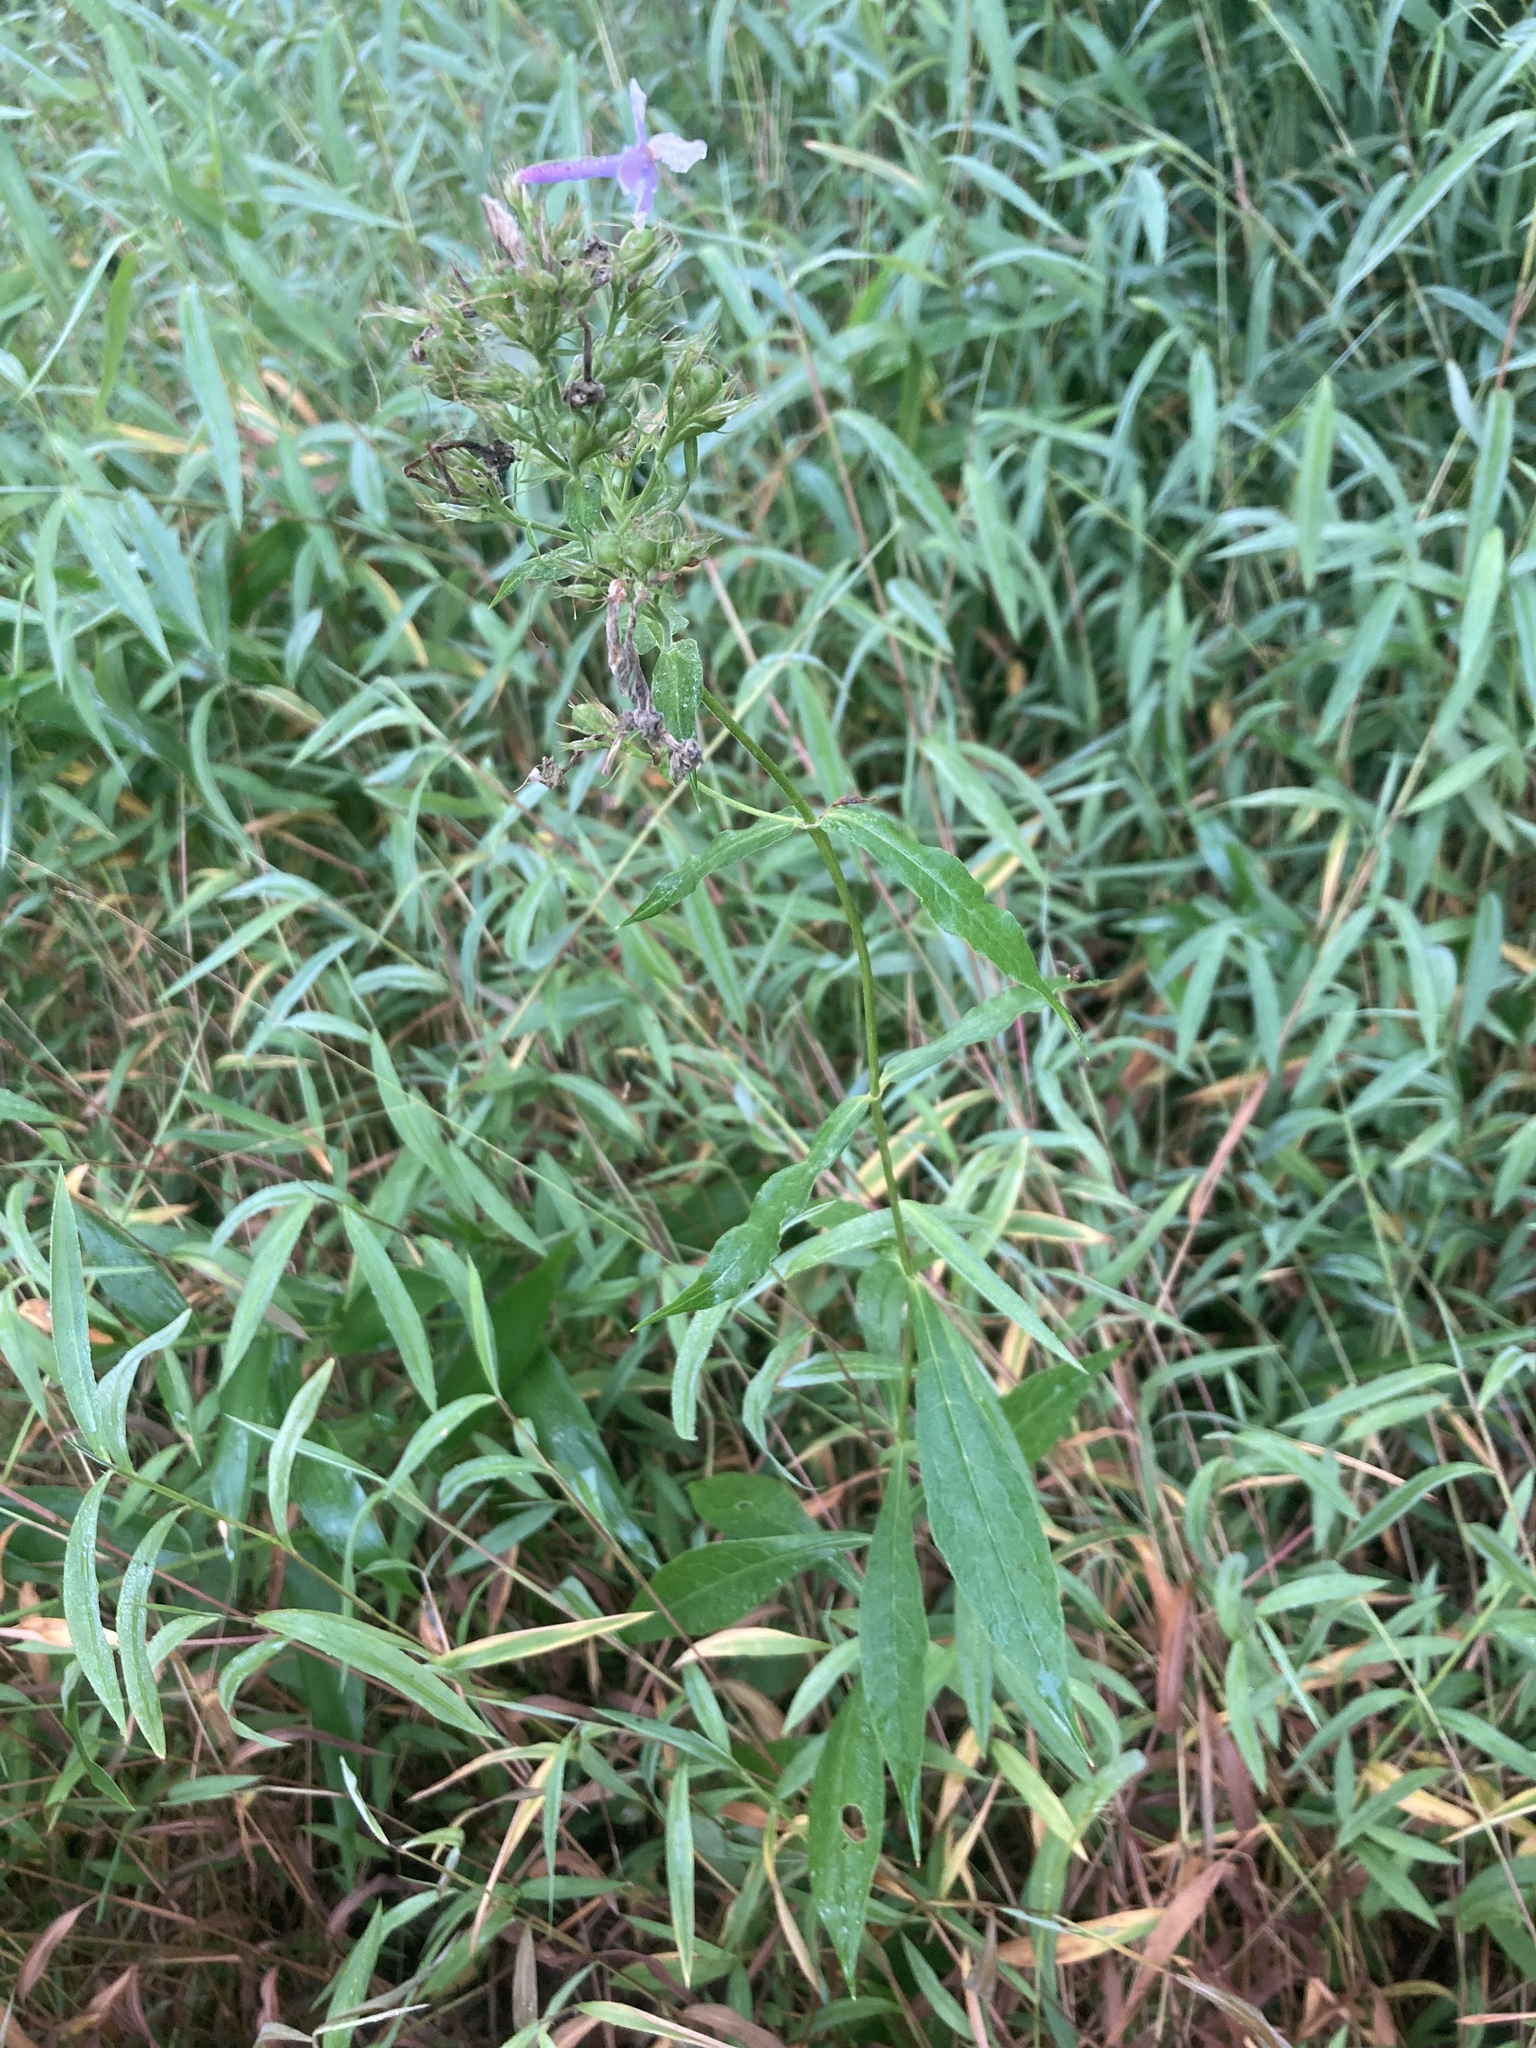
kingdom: Plantae
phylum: Tracheophyta
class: Magnoliopsida
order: Ericales
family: Polemoniaceae
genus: Phlox
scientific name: Phlox paniculata
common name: Fall phlox
